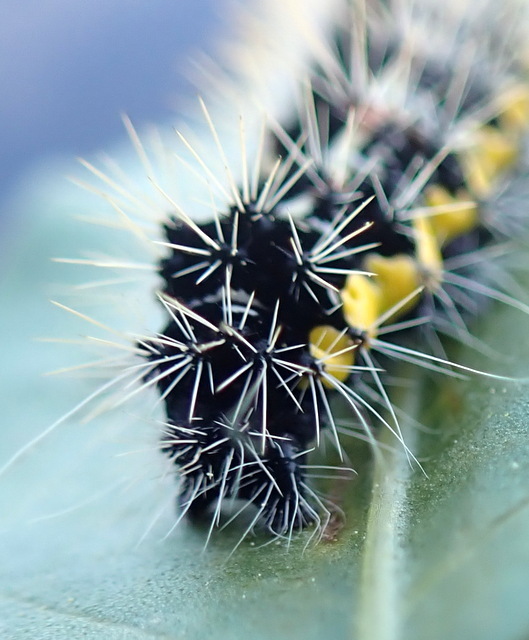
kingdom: Animalia
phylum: Arthropoda
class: Insecta
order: Lepidoptera
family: Noctuidae
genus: Acronicta
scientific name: Acronicta oblinita
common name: Smeared dagger
